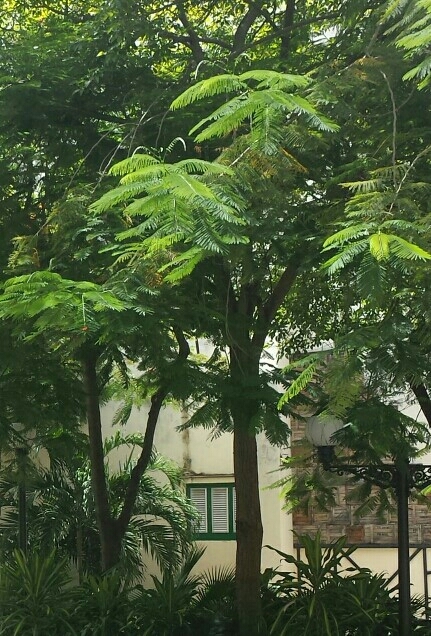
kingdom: Plantae
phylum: Tracheophyta
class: Magnoliopsida
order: Fabales
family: Fabaceae
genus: Delonix
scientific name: Delonix regia
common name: Royal poinciana
